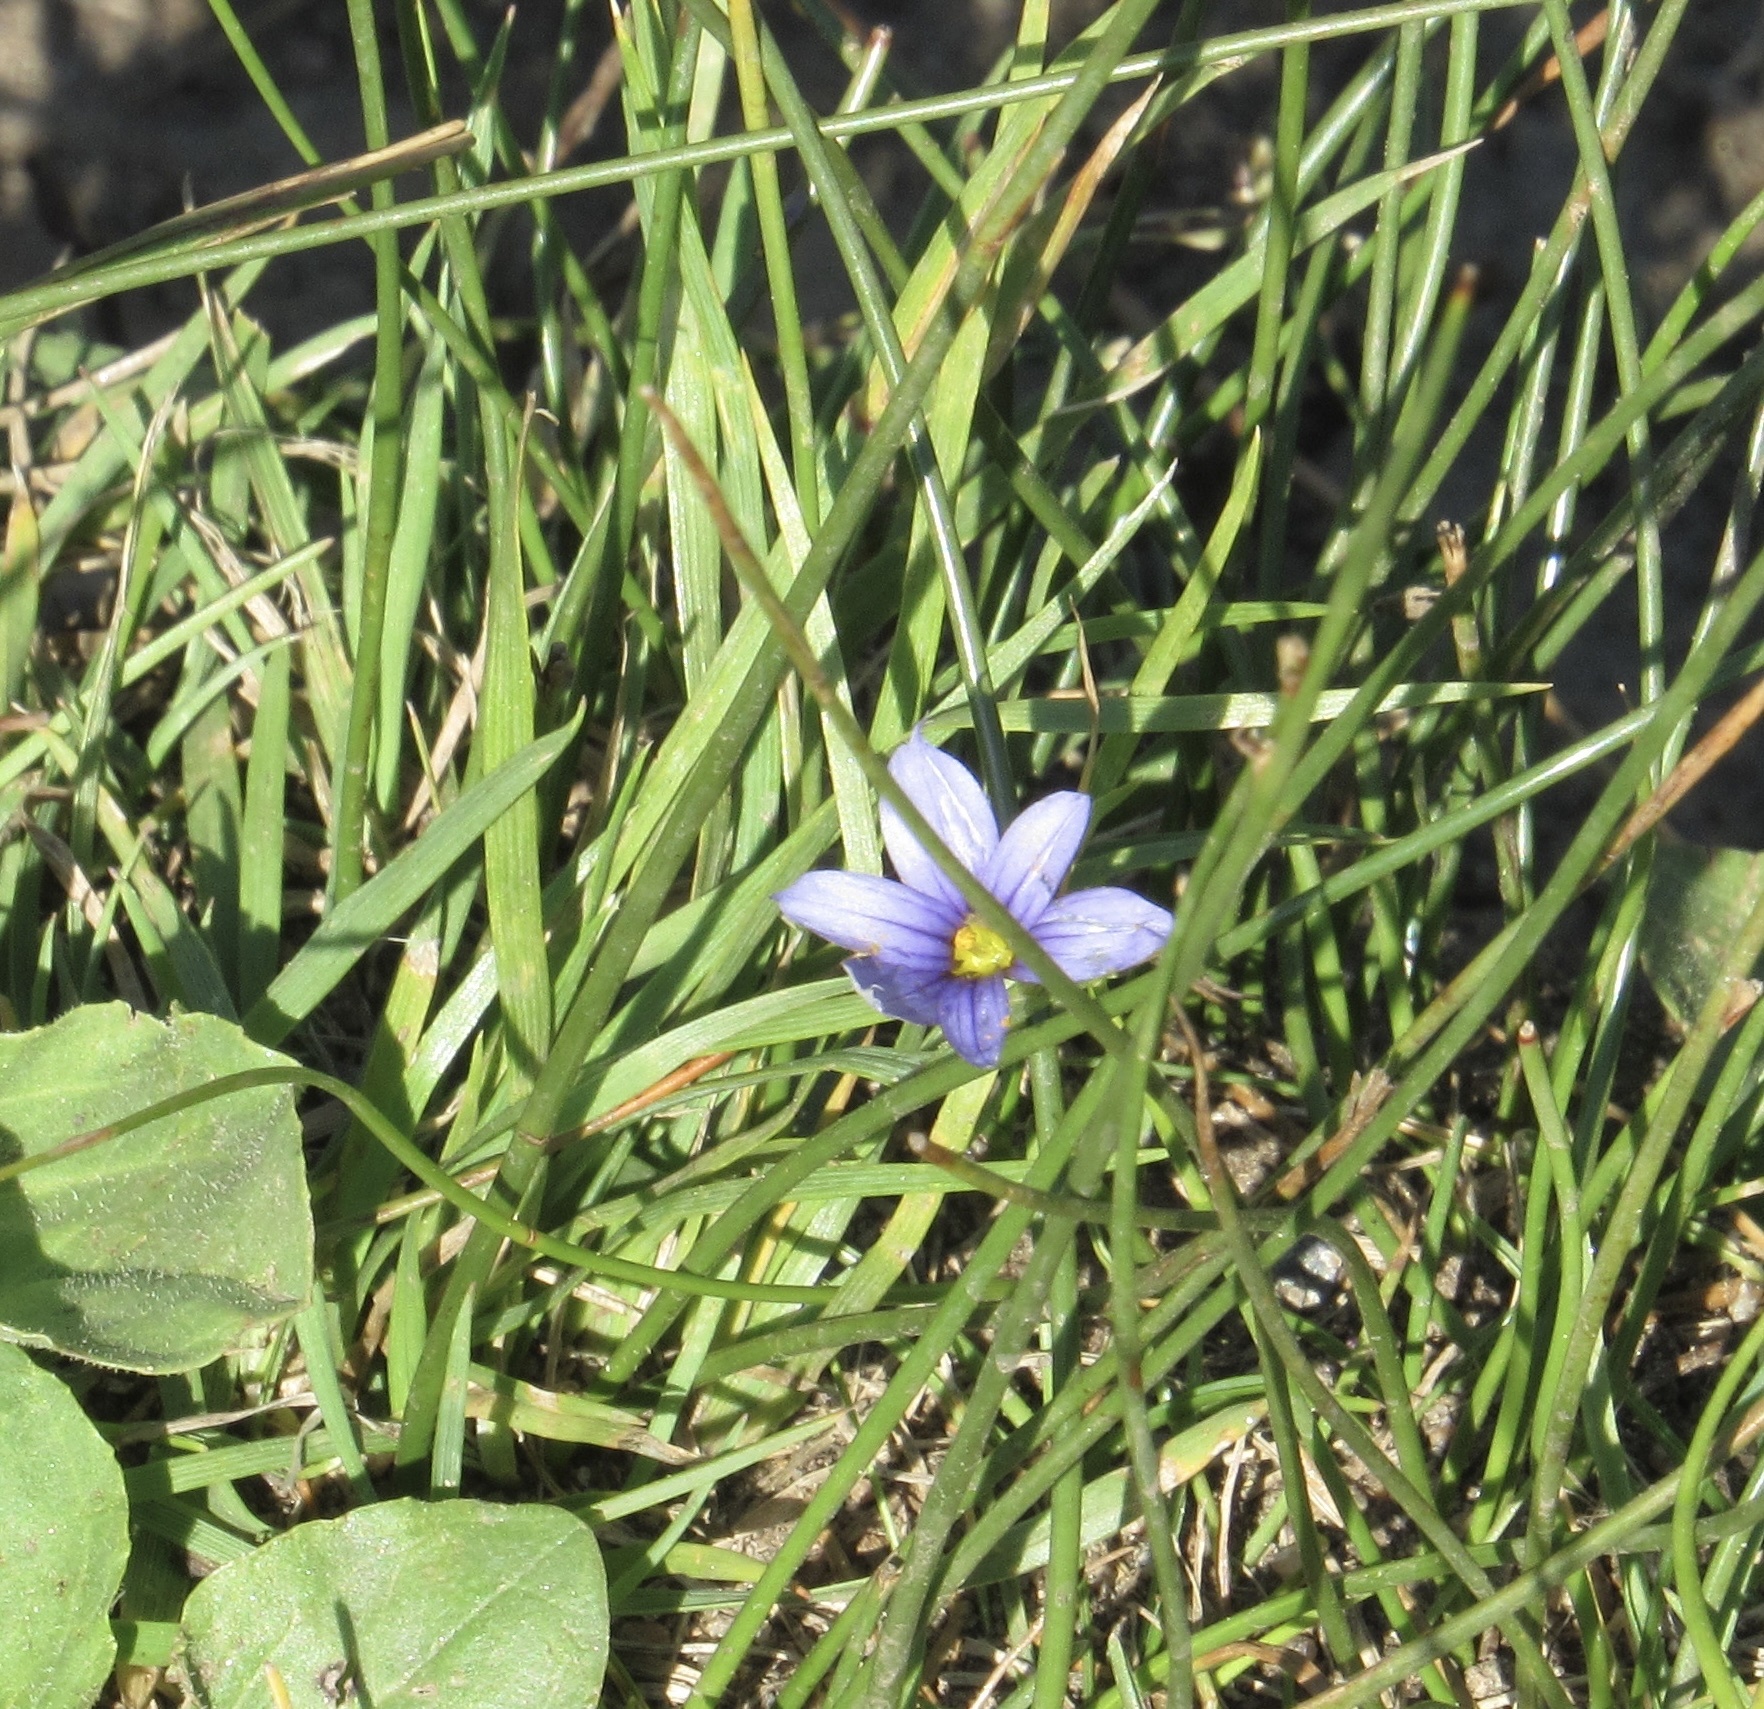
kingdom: Plantae
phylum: Tracheophyta
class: Liliopsida
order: Asparagales
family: Iridaceae
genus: Sisyrinchium
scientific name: Sisyrinchium montanum
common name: American blue-eyed-grass
